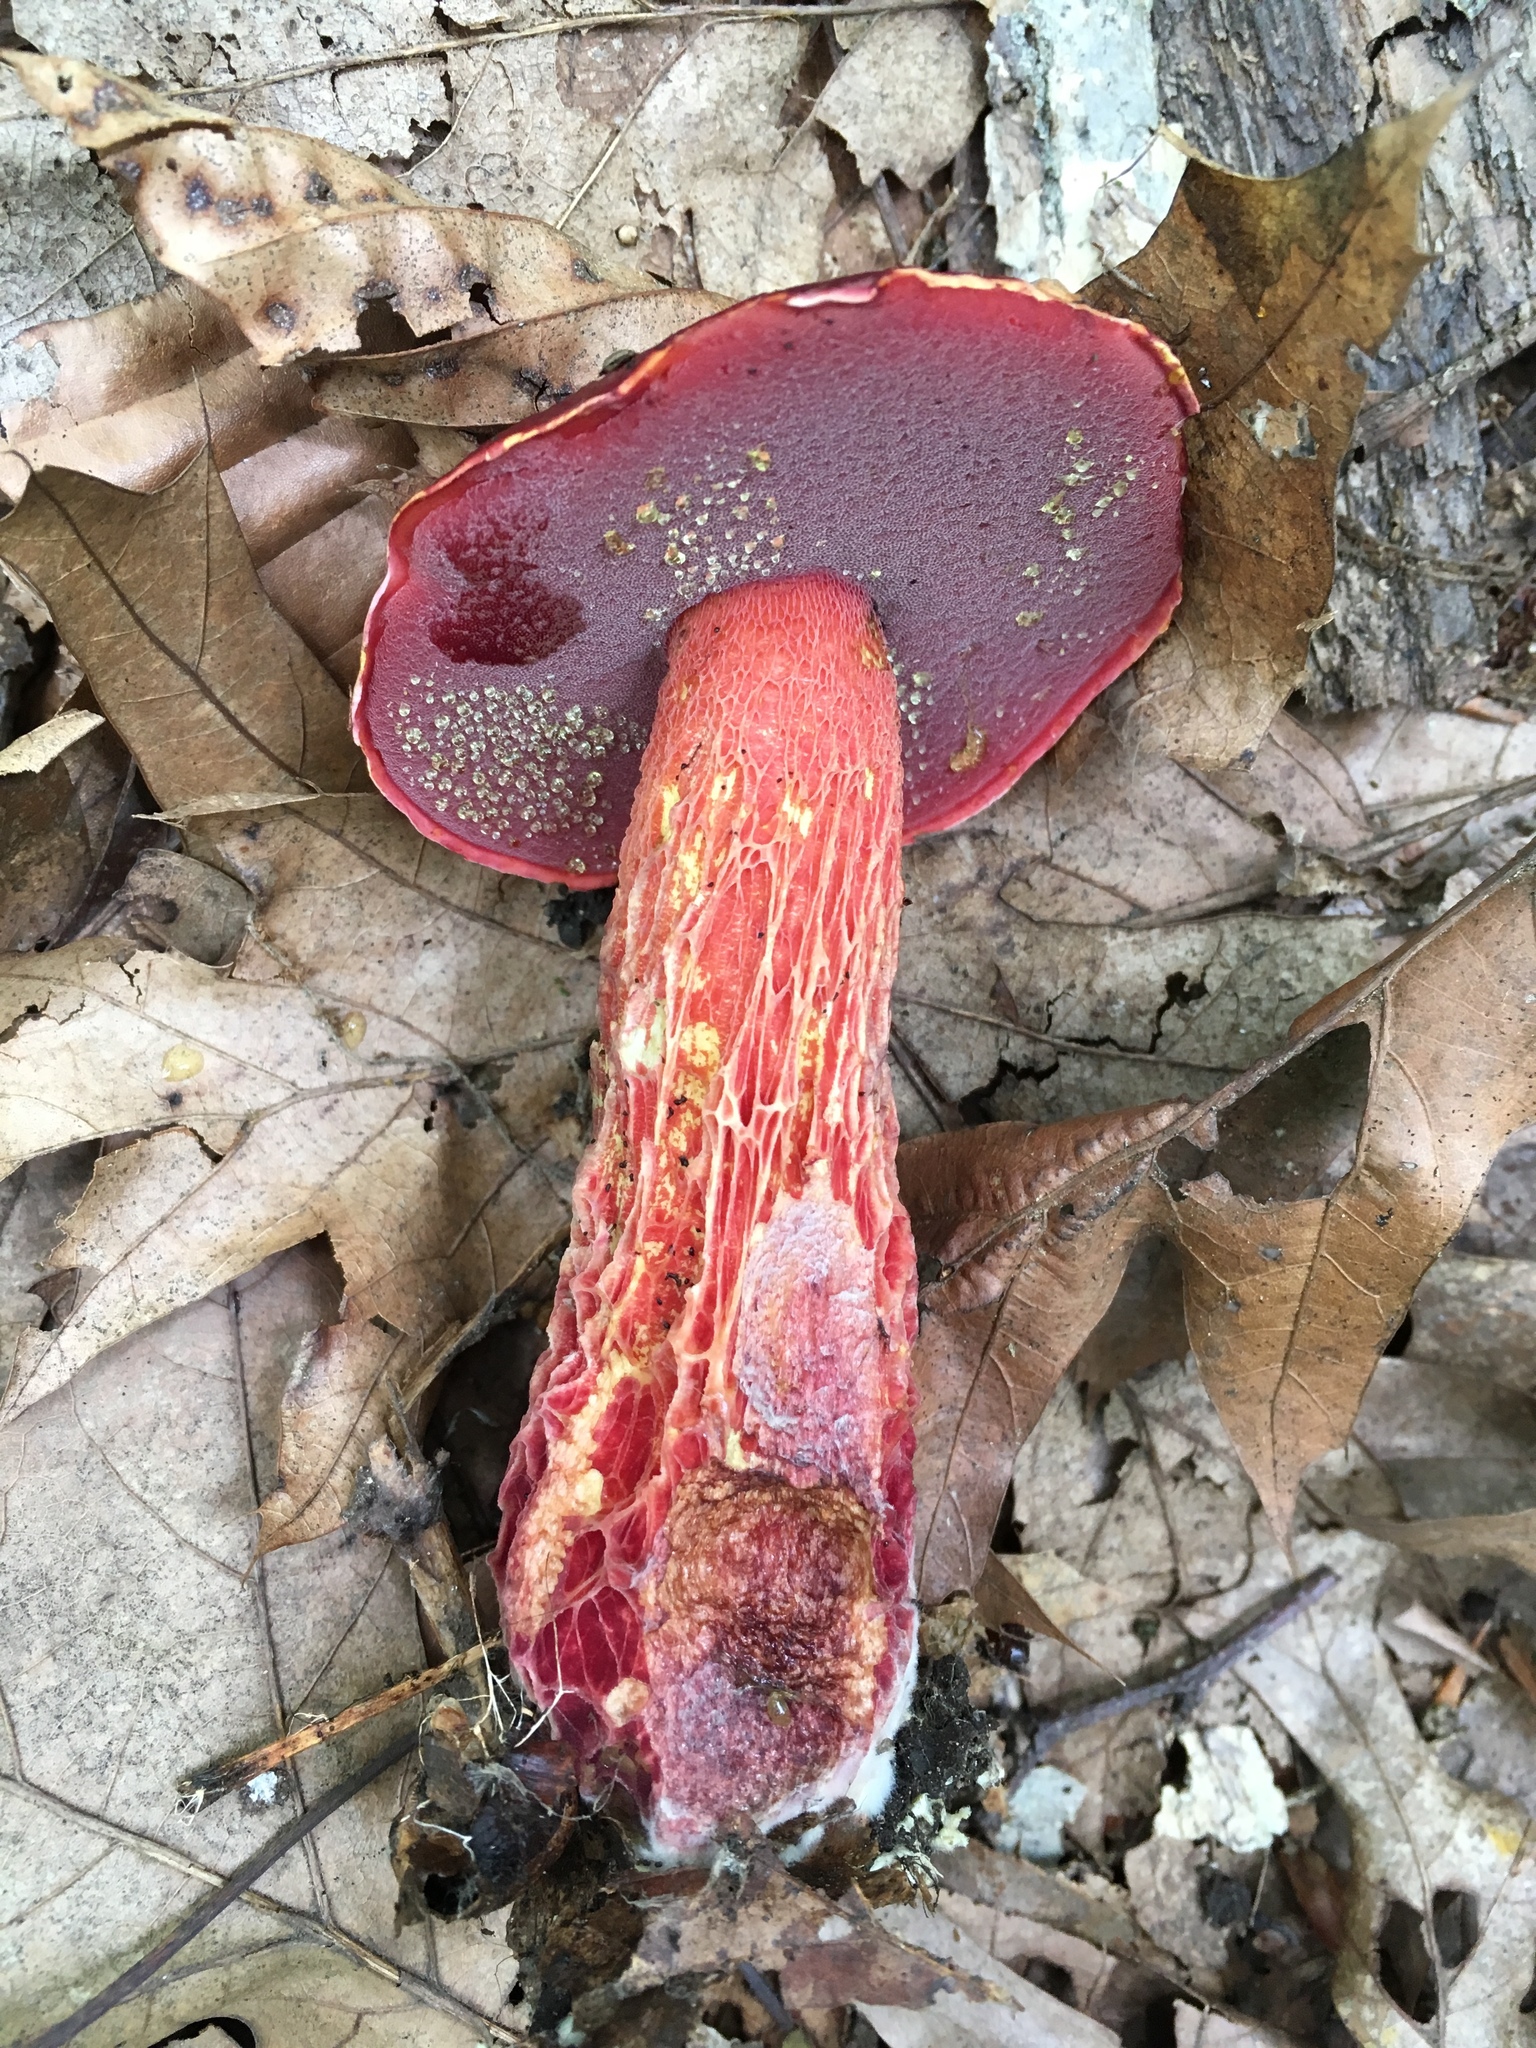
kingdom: Fungi
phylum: Basidiomycota
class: Agaricomycetes
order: Boletales
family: Boletaceae
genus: Butyriboletus
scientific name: Butyriboletus frostii
